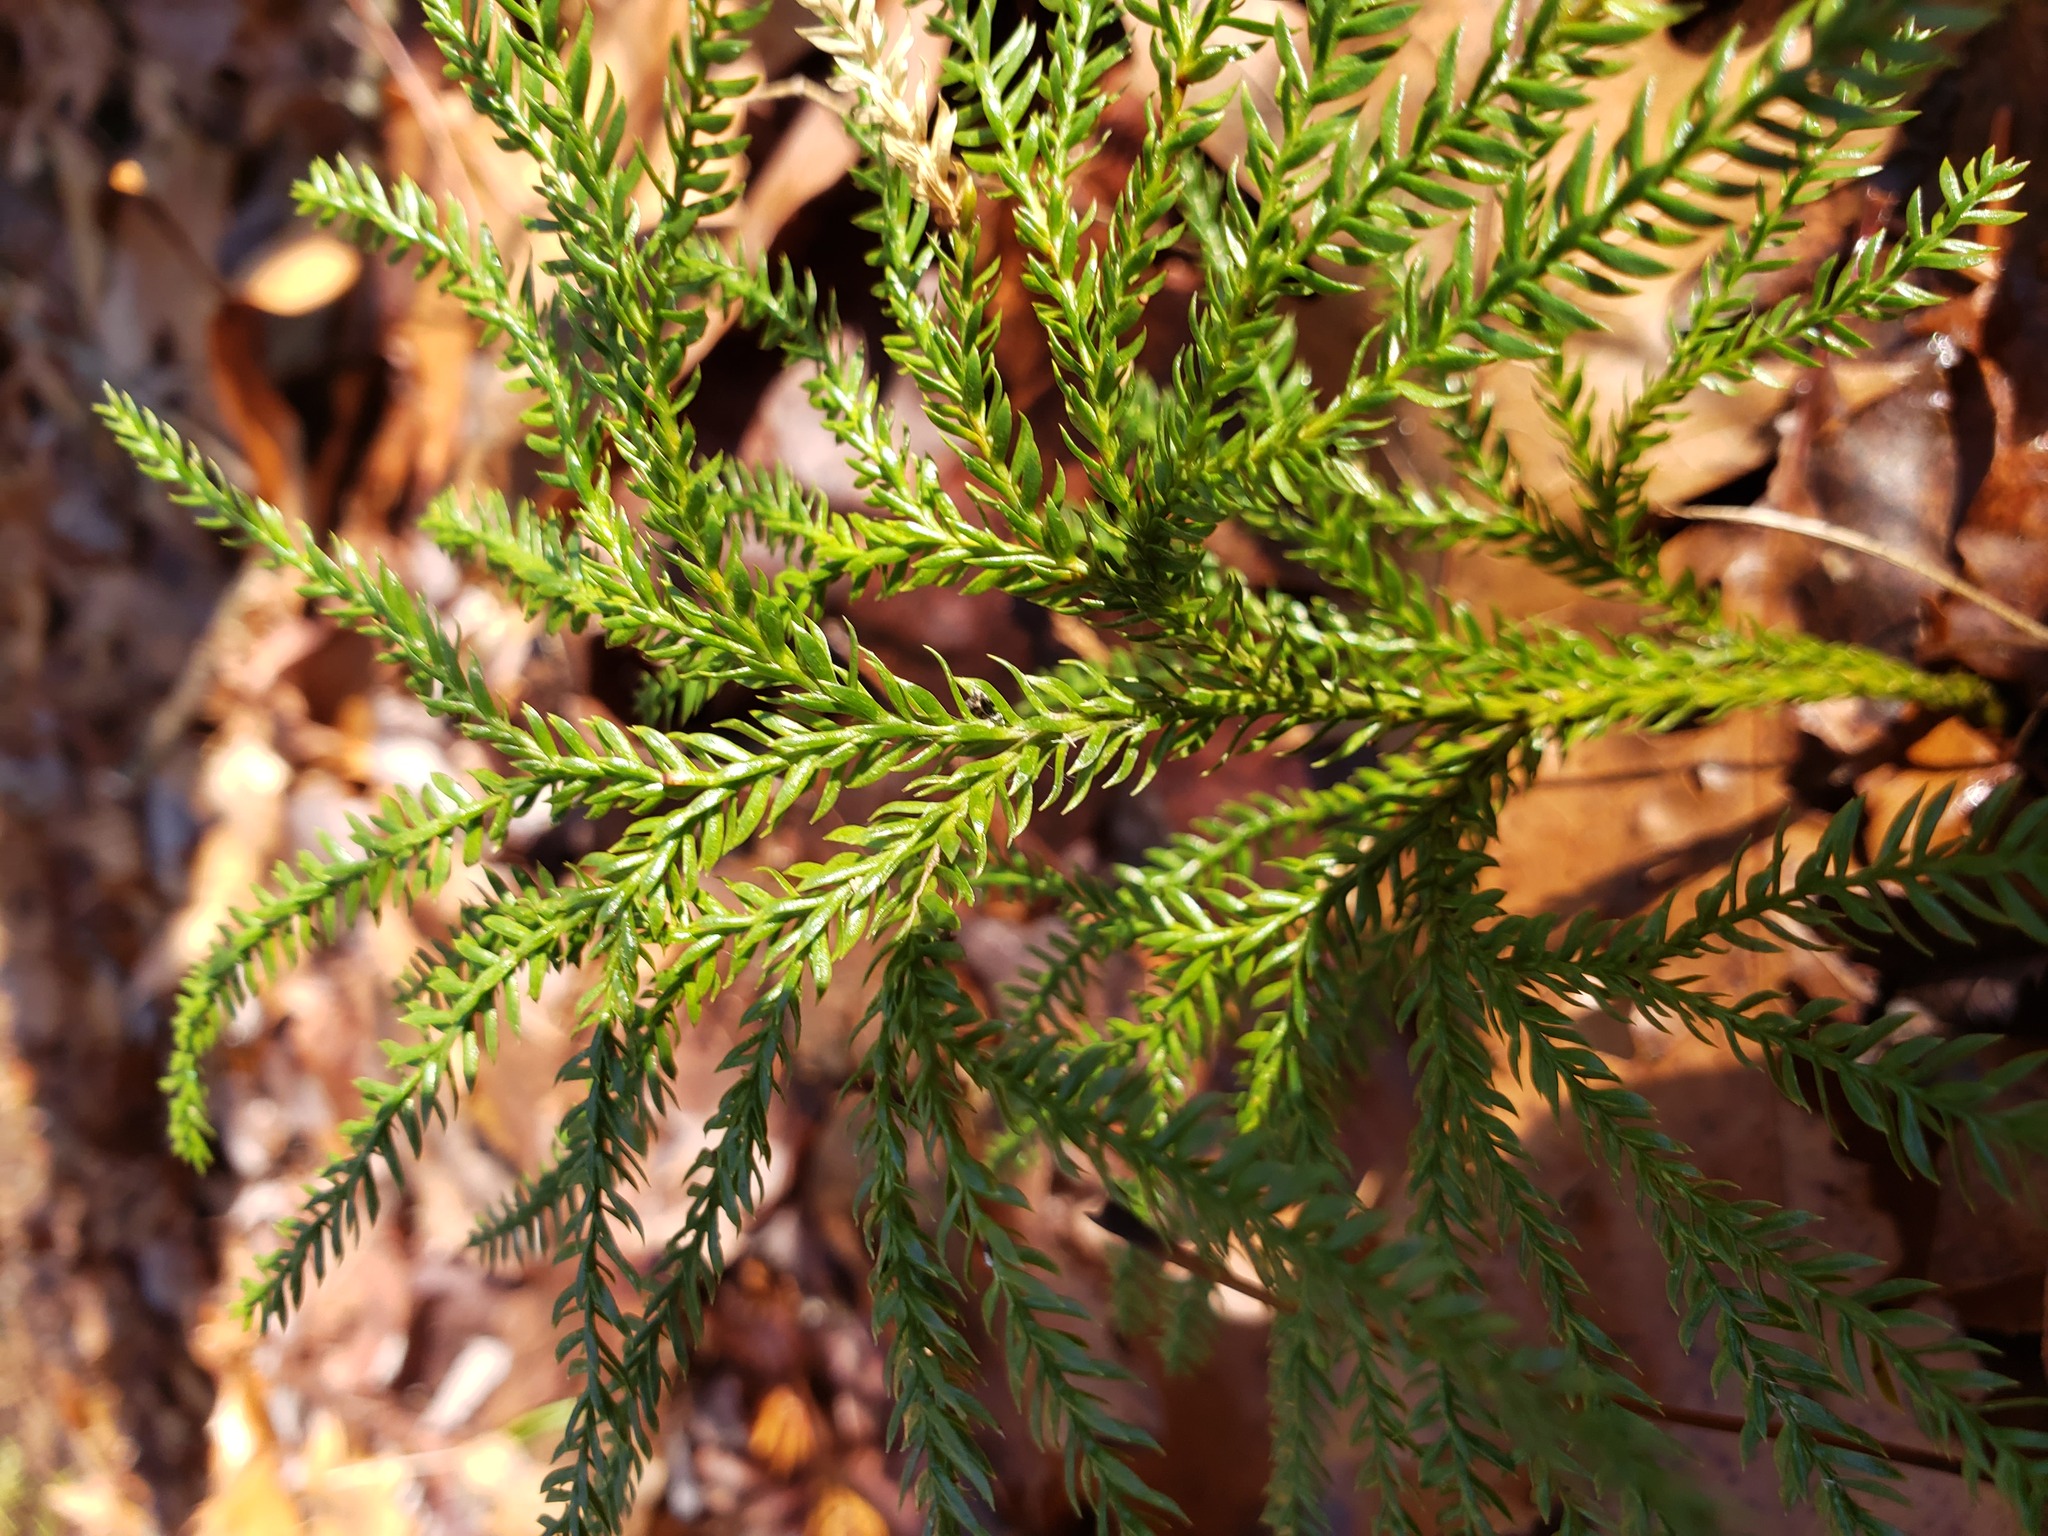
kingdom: Plantae
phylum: Tracheophyta
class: Lycopodiopsida
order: Lycopodiales
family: Lycopodiaceae
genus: Dendrolycopodium
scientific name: Dendrolycopodium obscurum
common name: Common ground-pine
